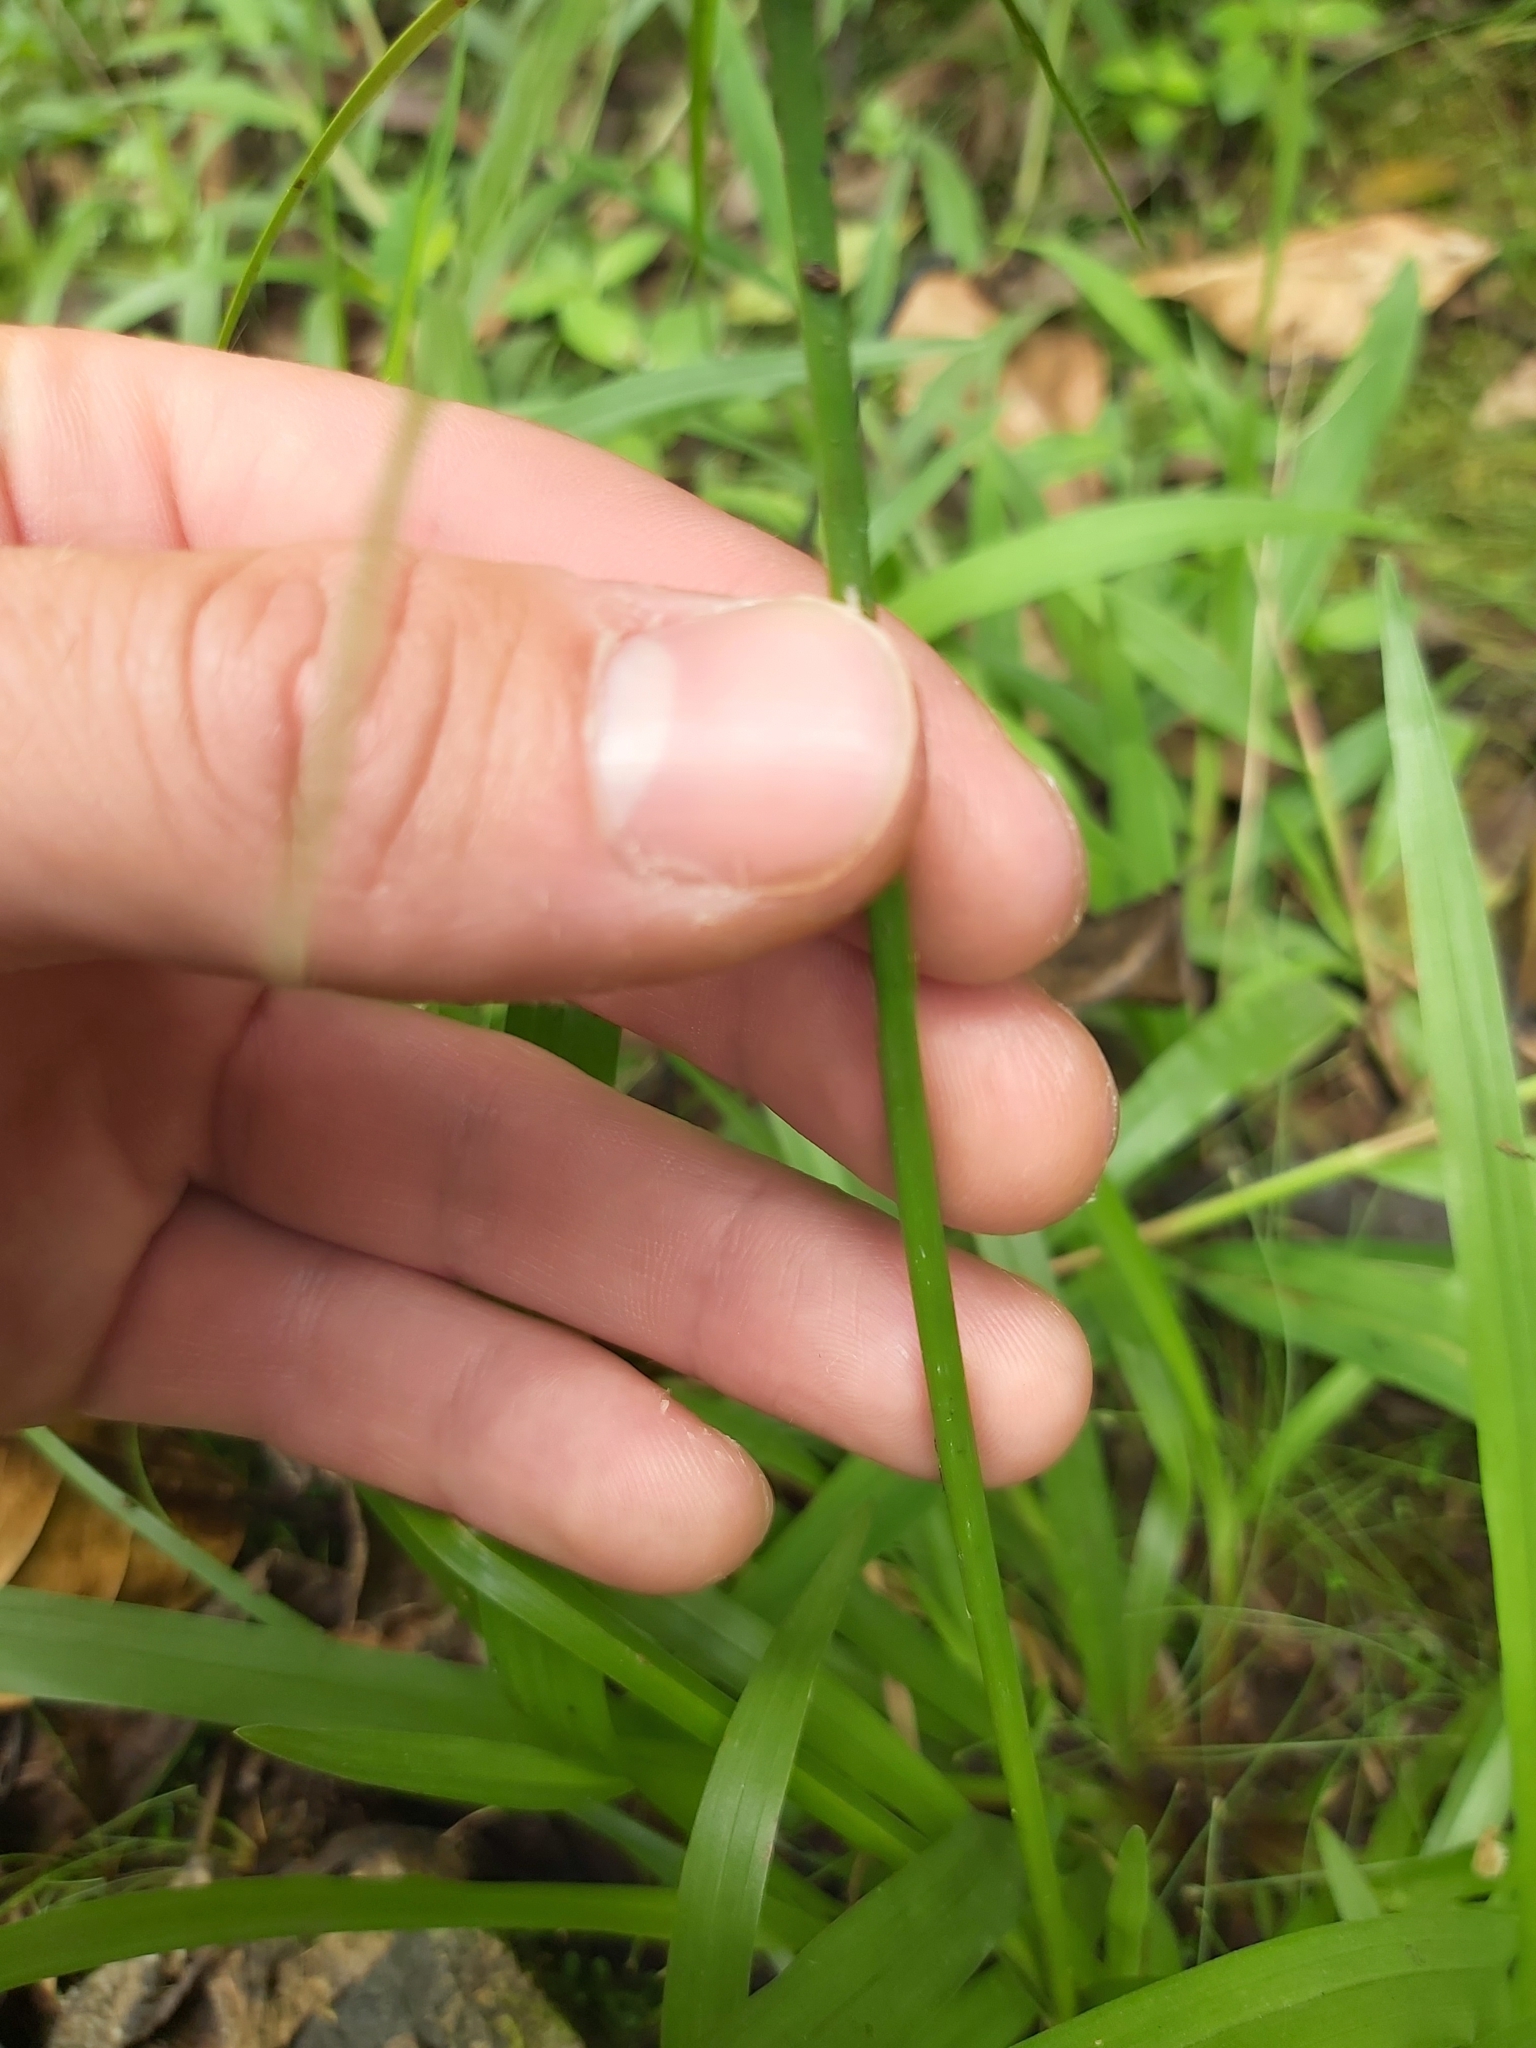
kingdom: Plantae
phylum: Tracheophyta
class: Liliopsida
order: Poales
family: Cyperaceae
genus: Cyperus
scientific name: Cyperus luzulae
